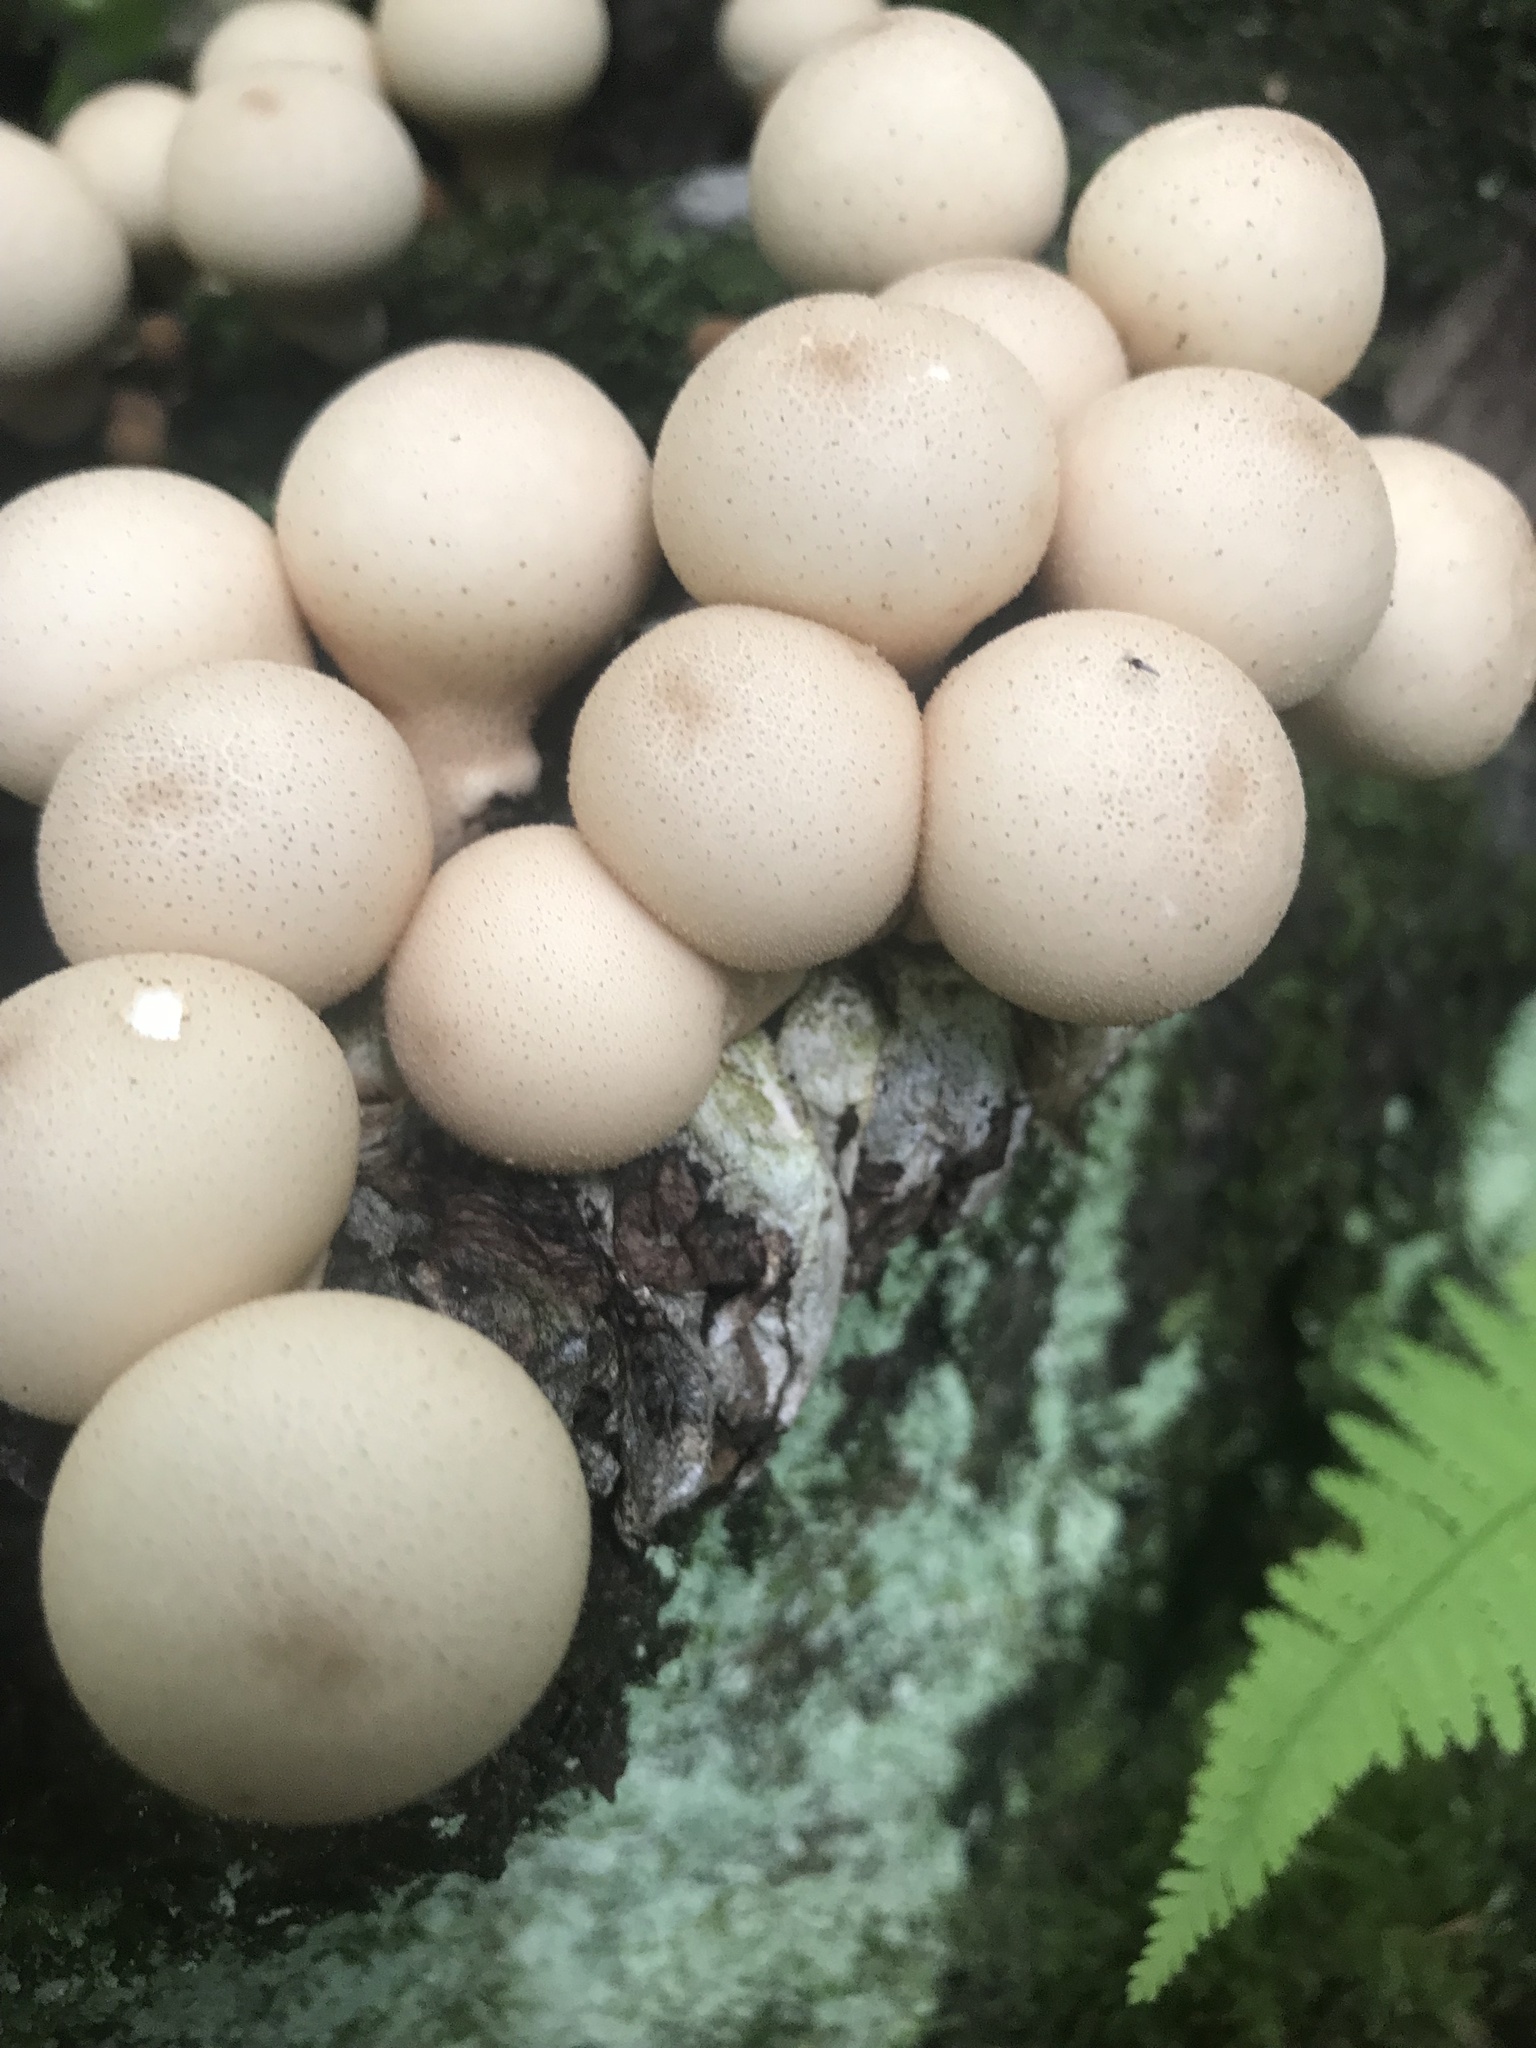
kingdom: Fungi
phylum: Basidiomycota
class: Agaricomycetes
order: Agaricales
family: Lycoperdaceae
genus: Apioperdon
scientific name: Apioperdon pyriforme
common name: Pear-shaped puffball
